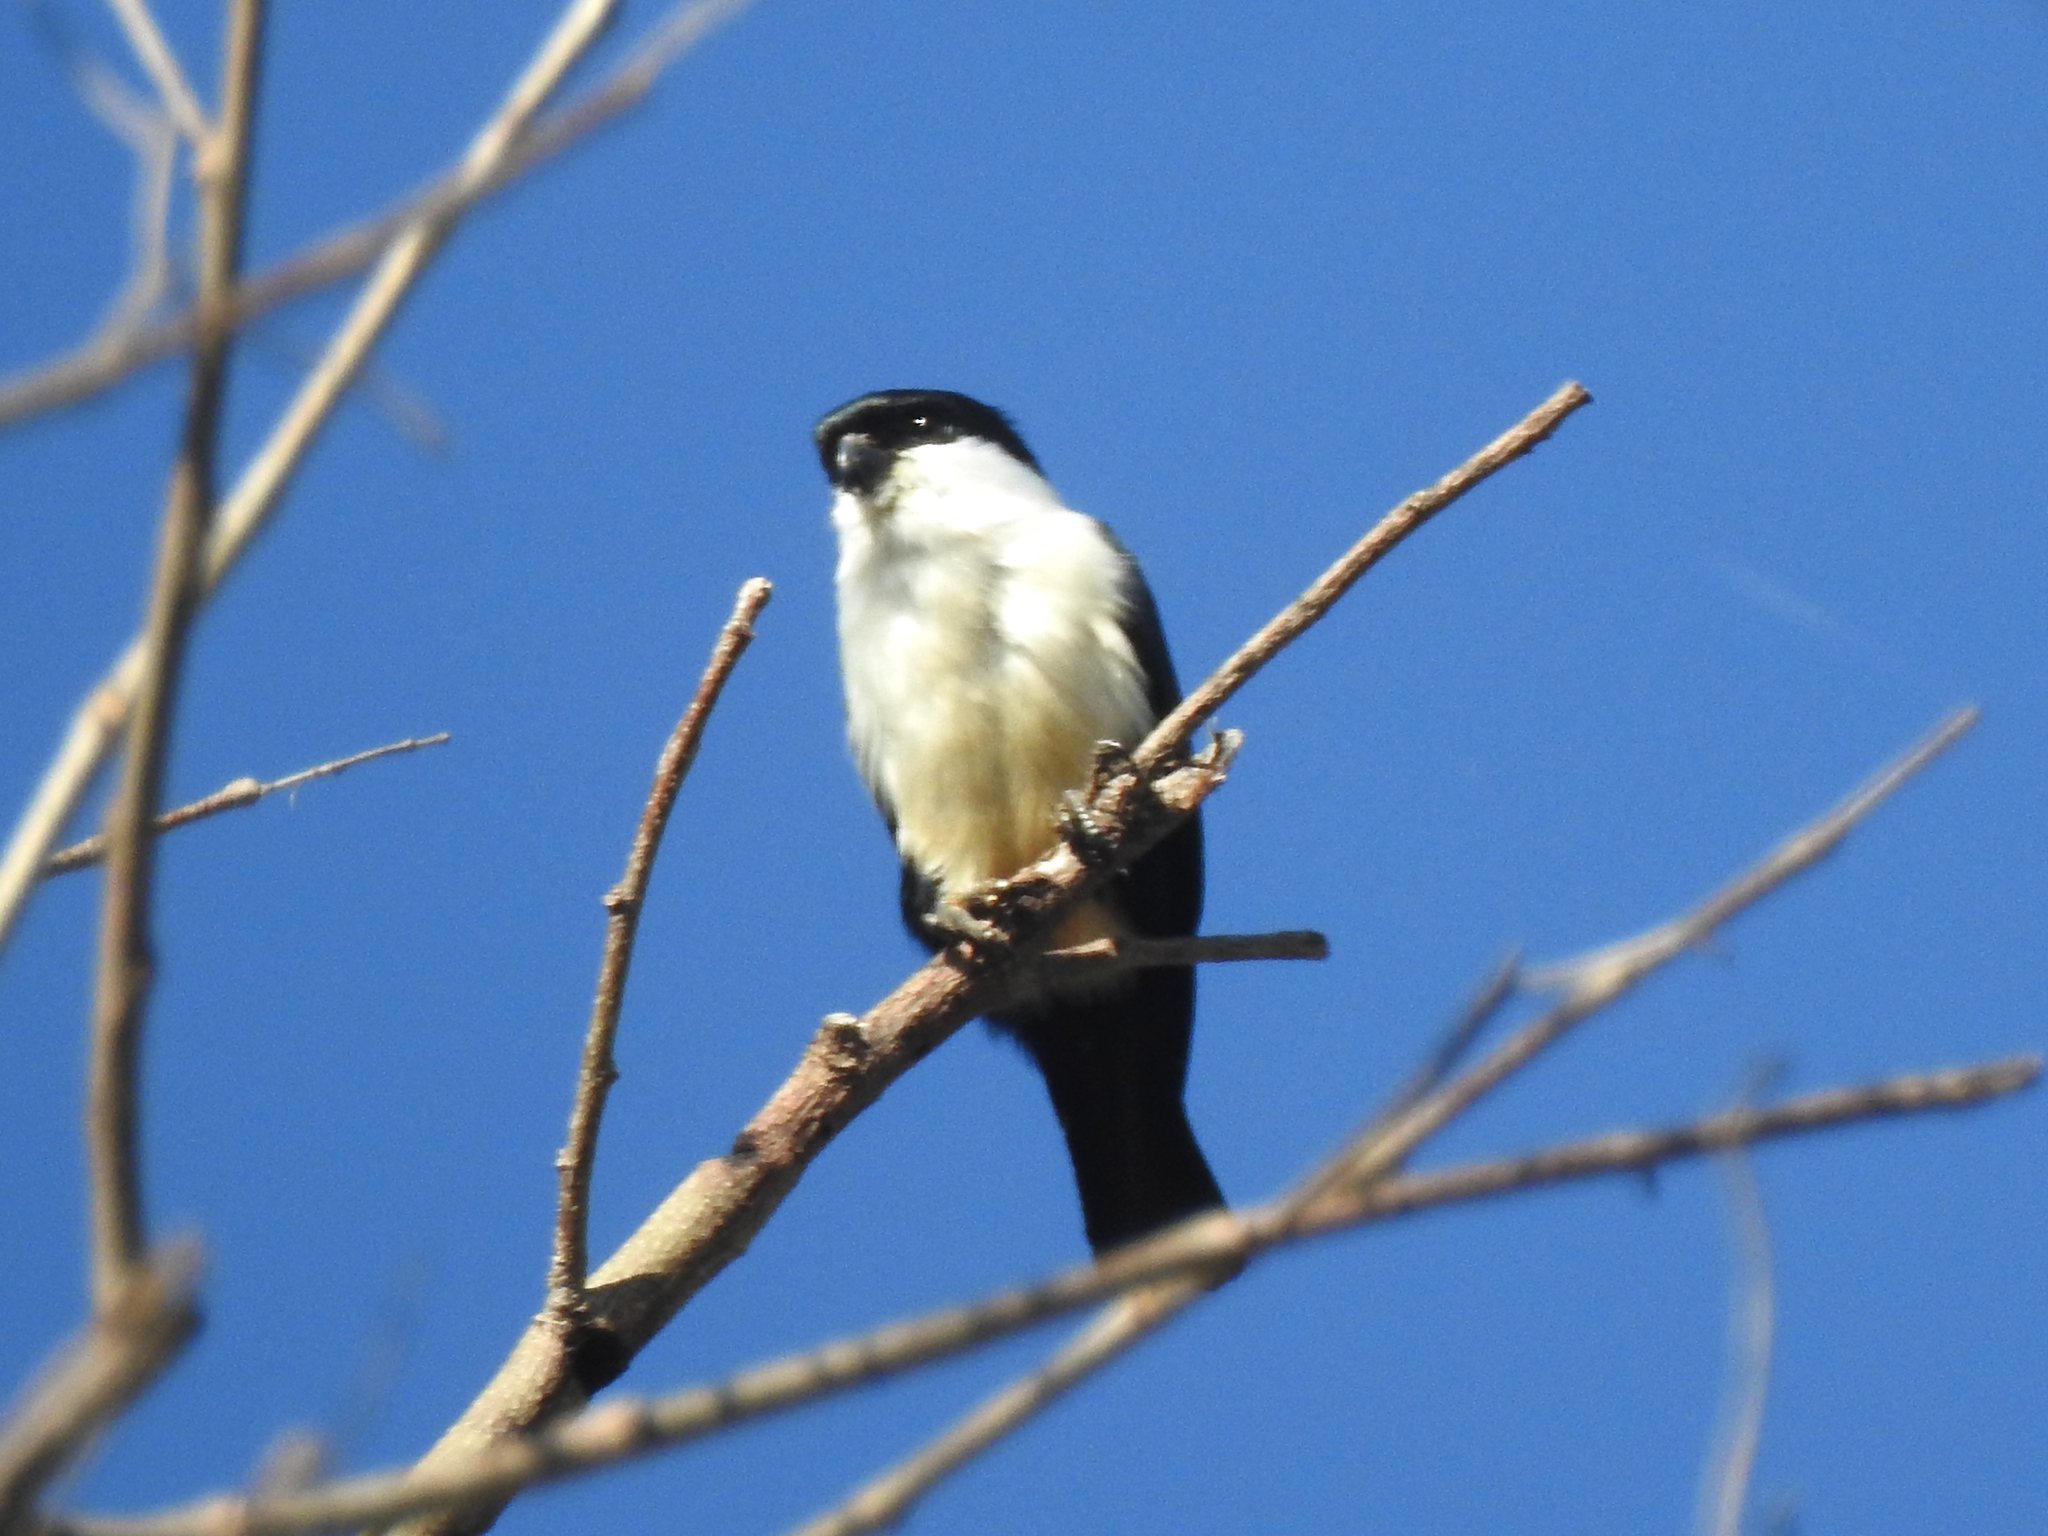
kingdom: Animalia
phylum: Chordata
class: Aves
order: Falconiformes
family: Falconidae
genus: Microhierax
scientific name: Microhierax erythrogenys
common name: Philippine falconet
